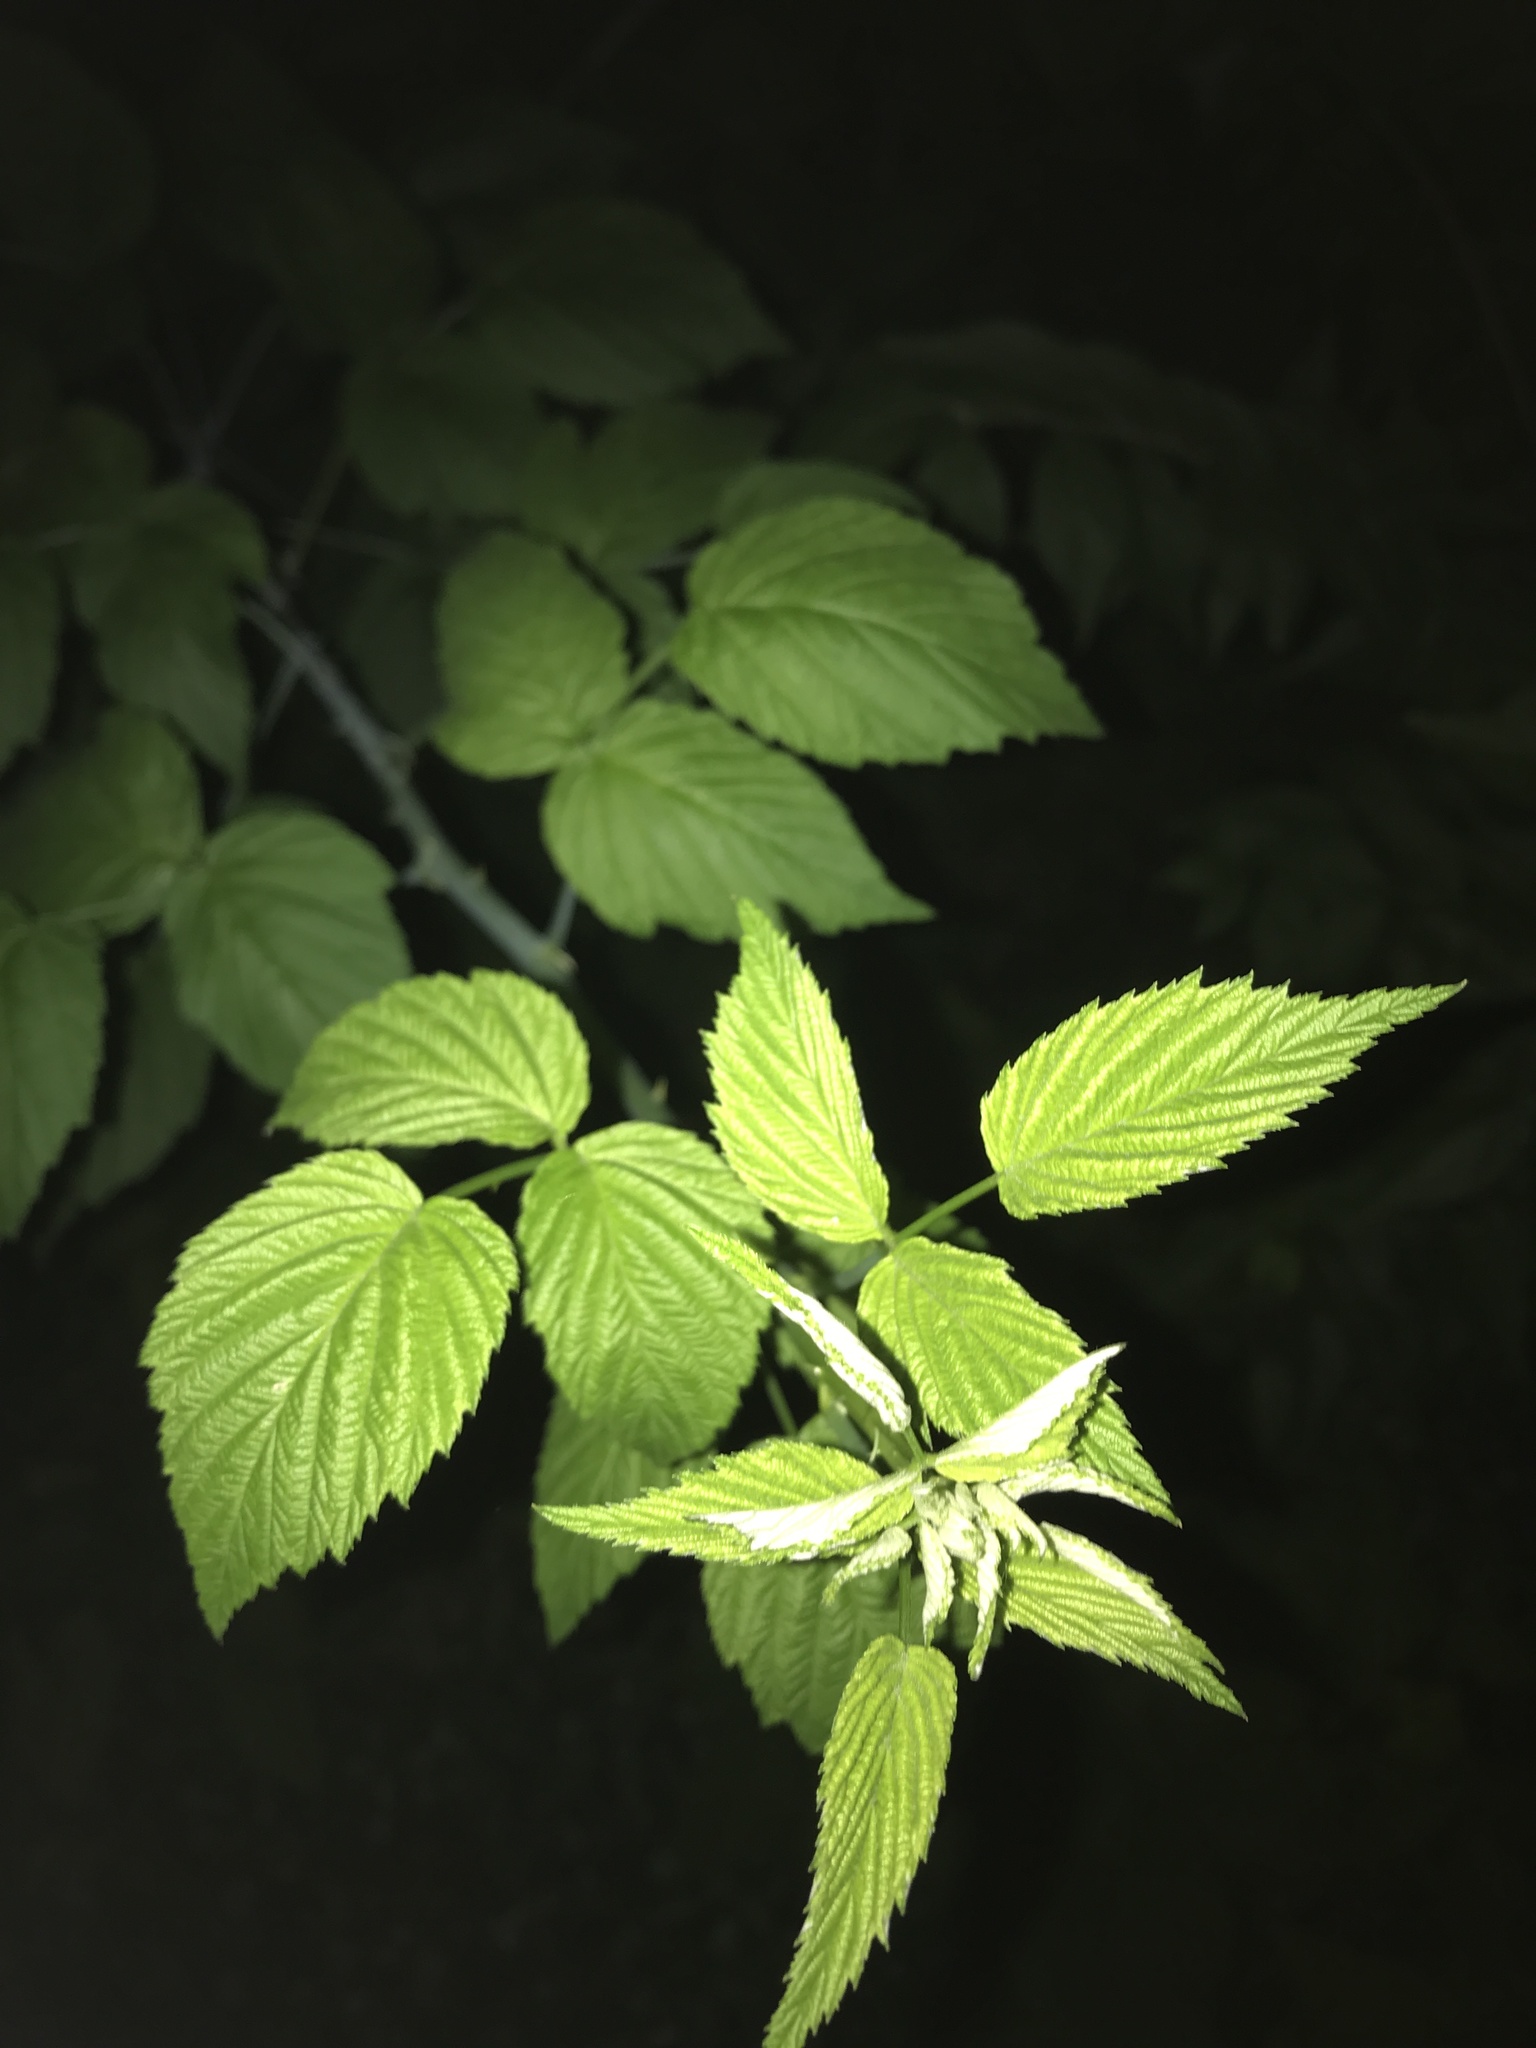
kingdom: Plantae
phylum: Tracheophyta
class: Magnoliopsida
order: Rosales
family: Rosaceae
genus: Rubus
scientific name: Rubus occidentalis
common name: Black raspberry
